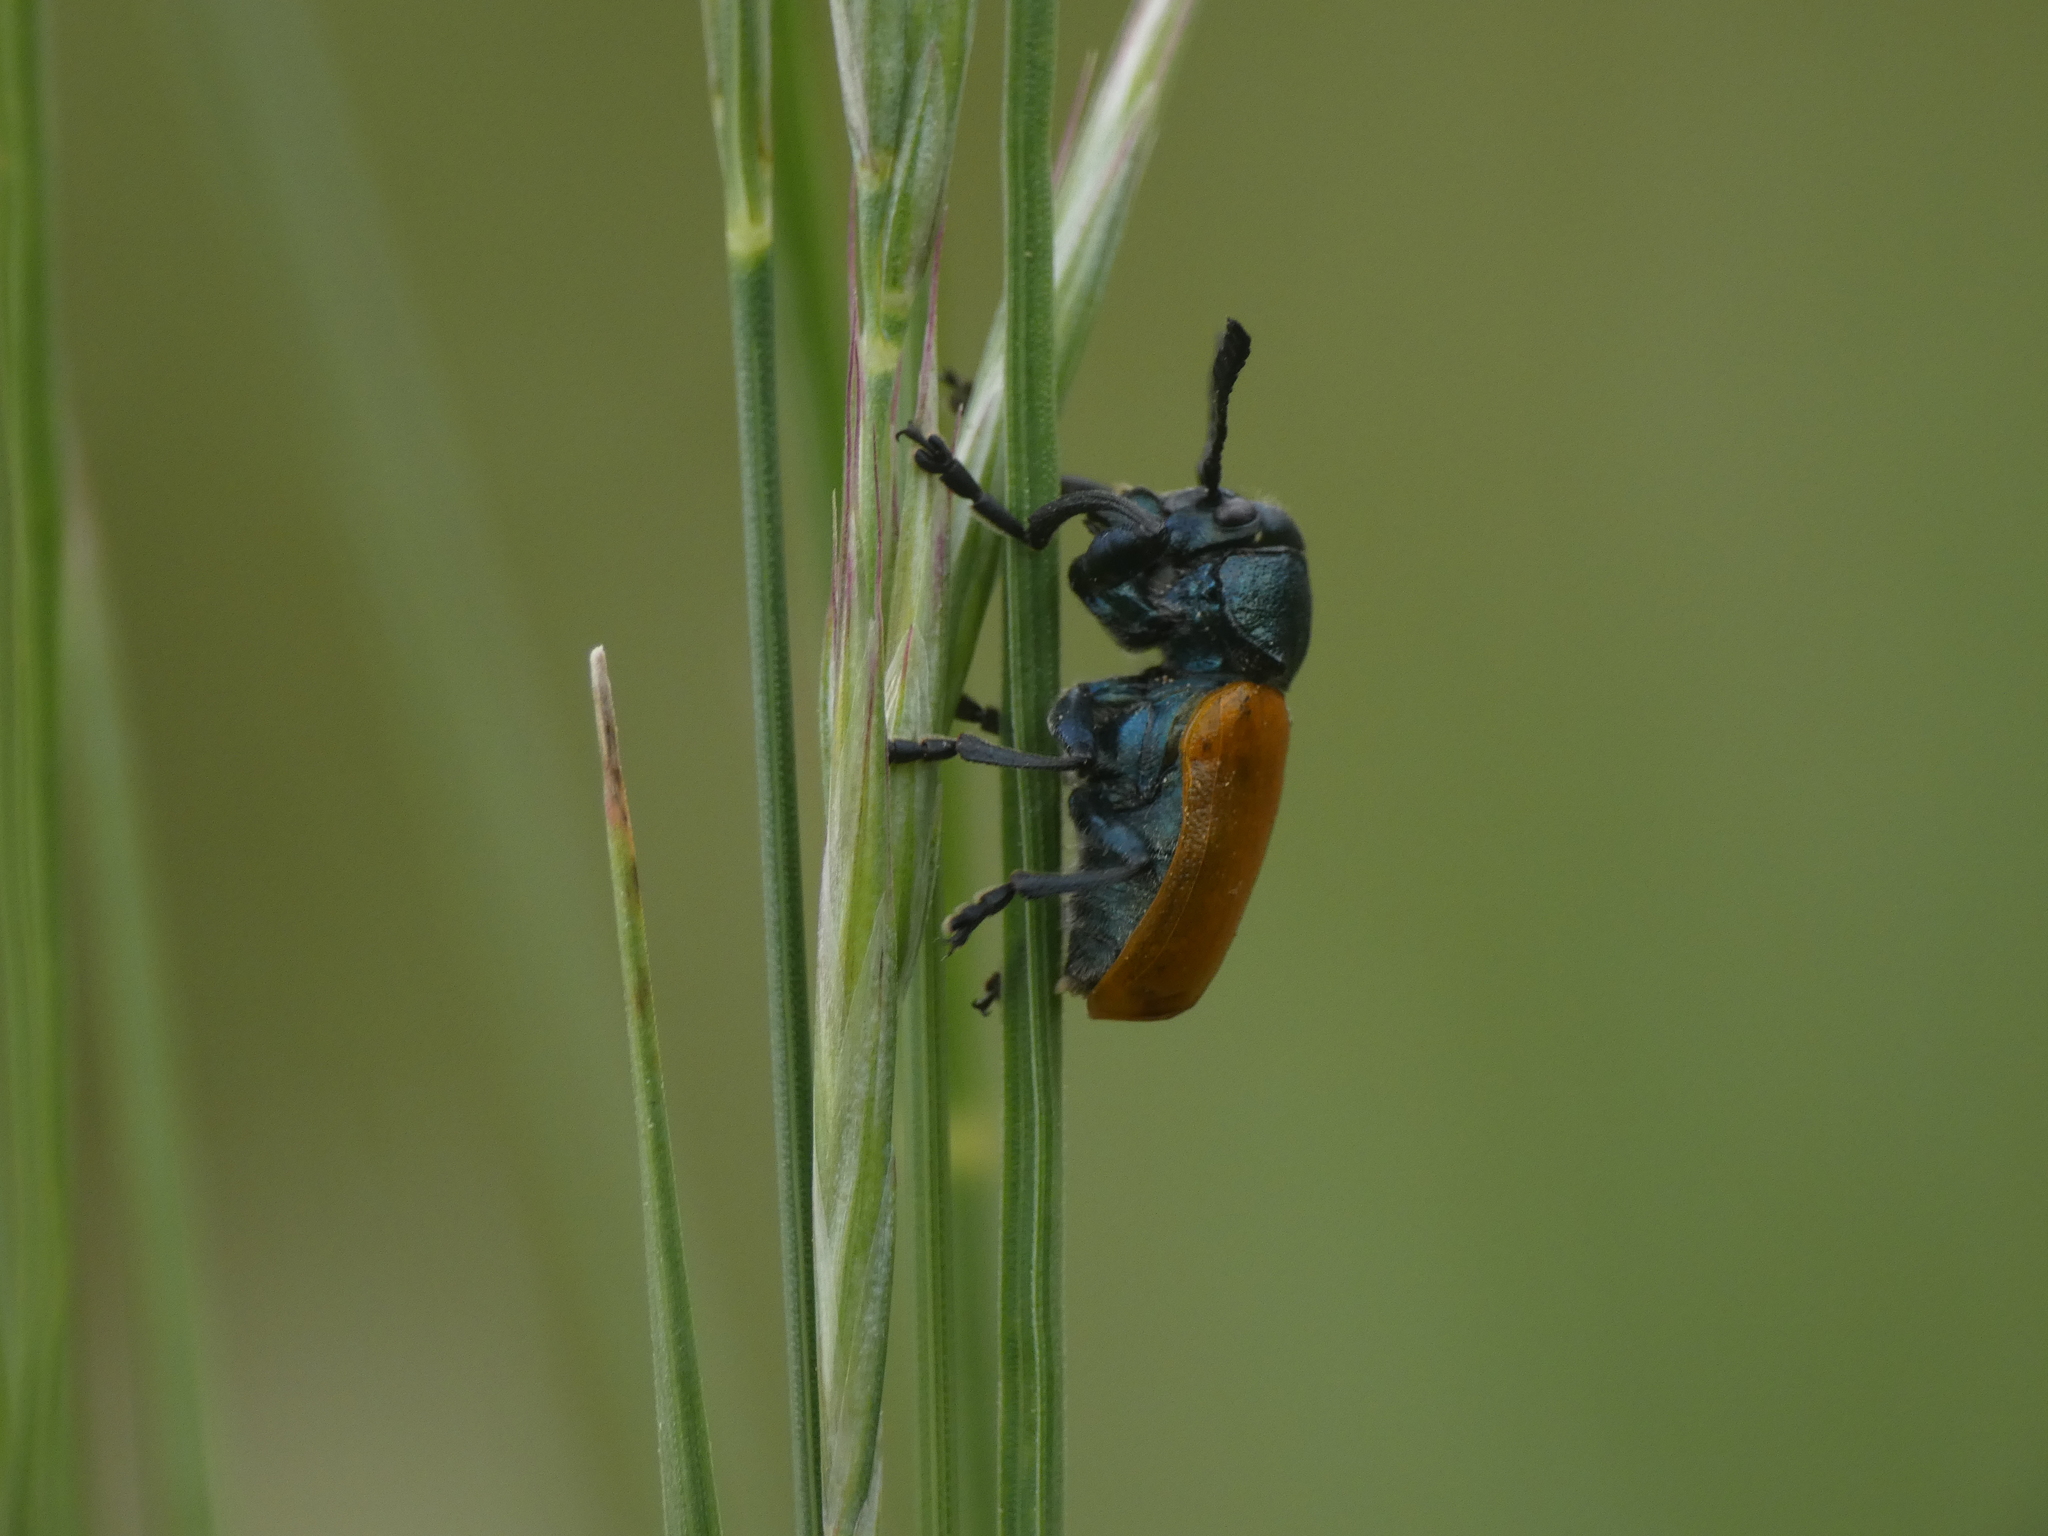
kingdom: Animalia
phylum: Arthropoda
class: Insecta
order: Coleoptera
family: Chrysomelidae
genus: Labidostomis
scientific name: Labidostomis taxicornis
